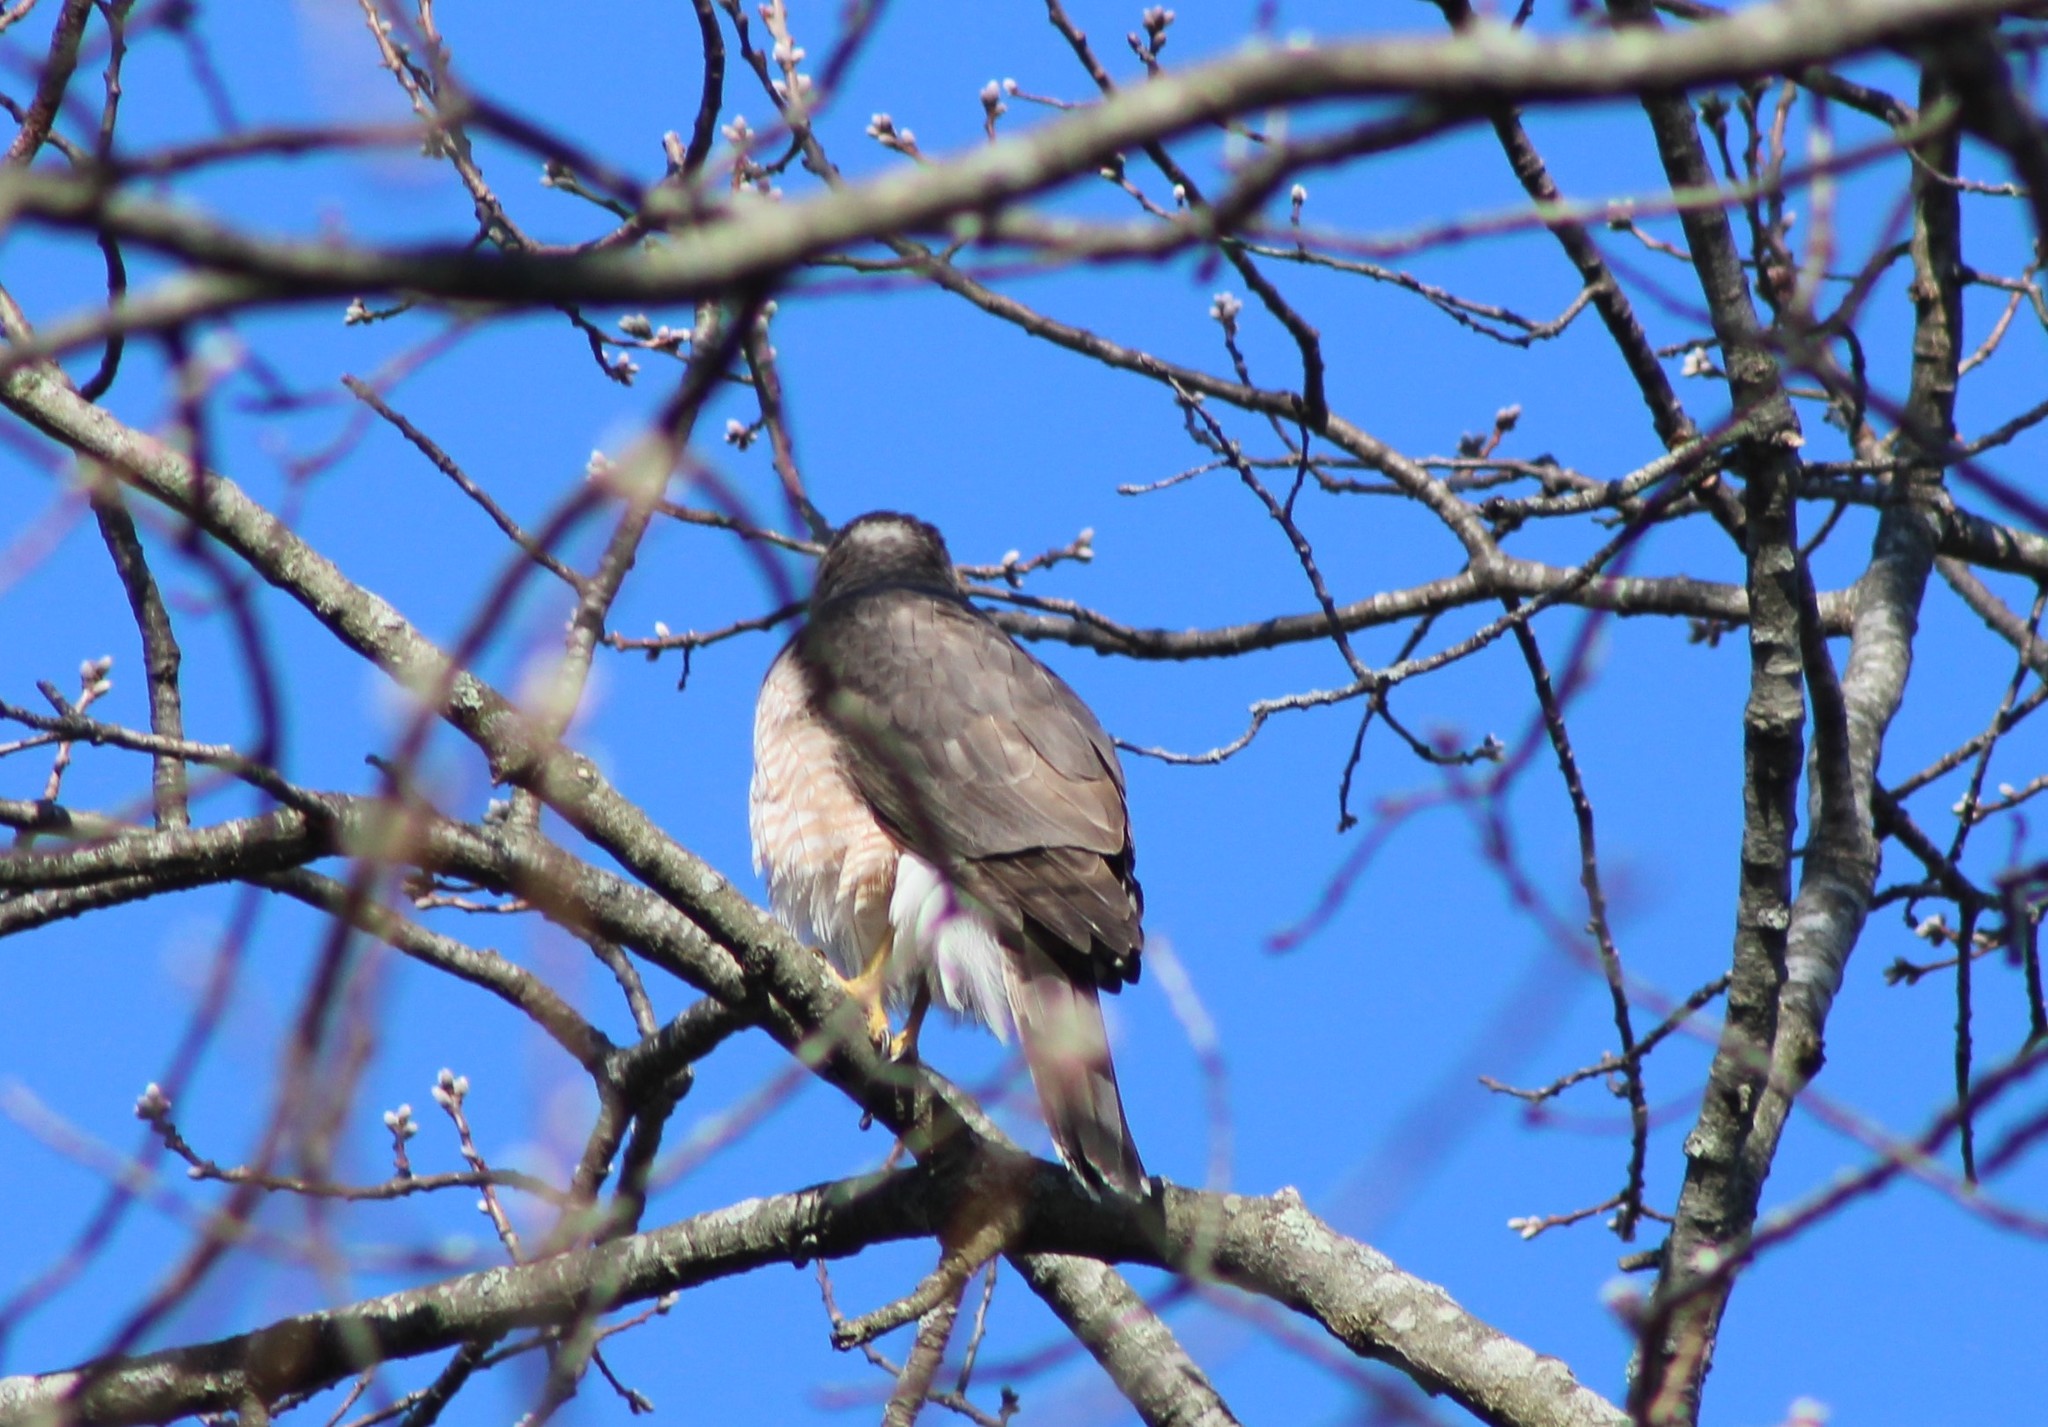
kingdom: Animalia
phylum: Chordata
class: Aves
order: Accipitriformes
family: Accipitridae
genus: Accipiter
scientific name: Accipiter cooperii
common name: Cooper's hawk
